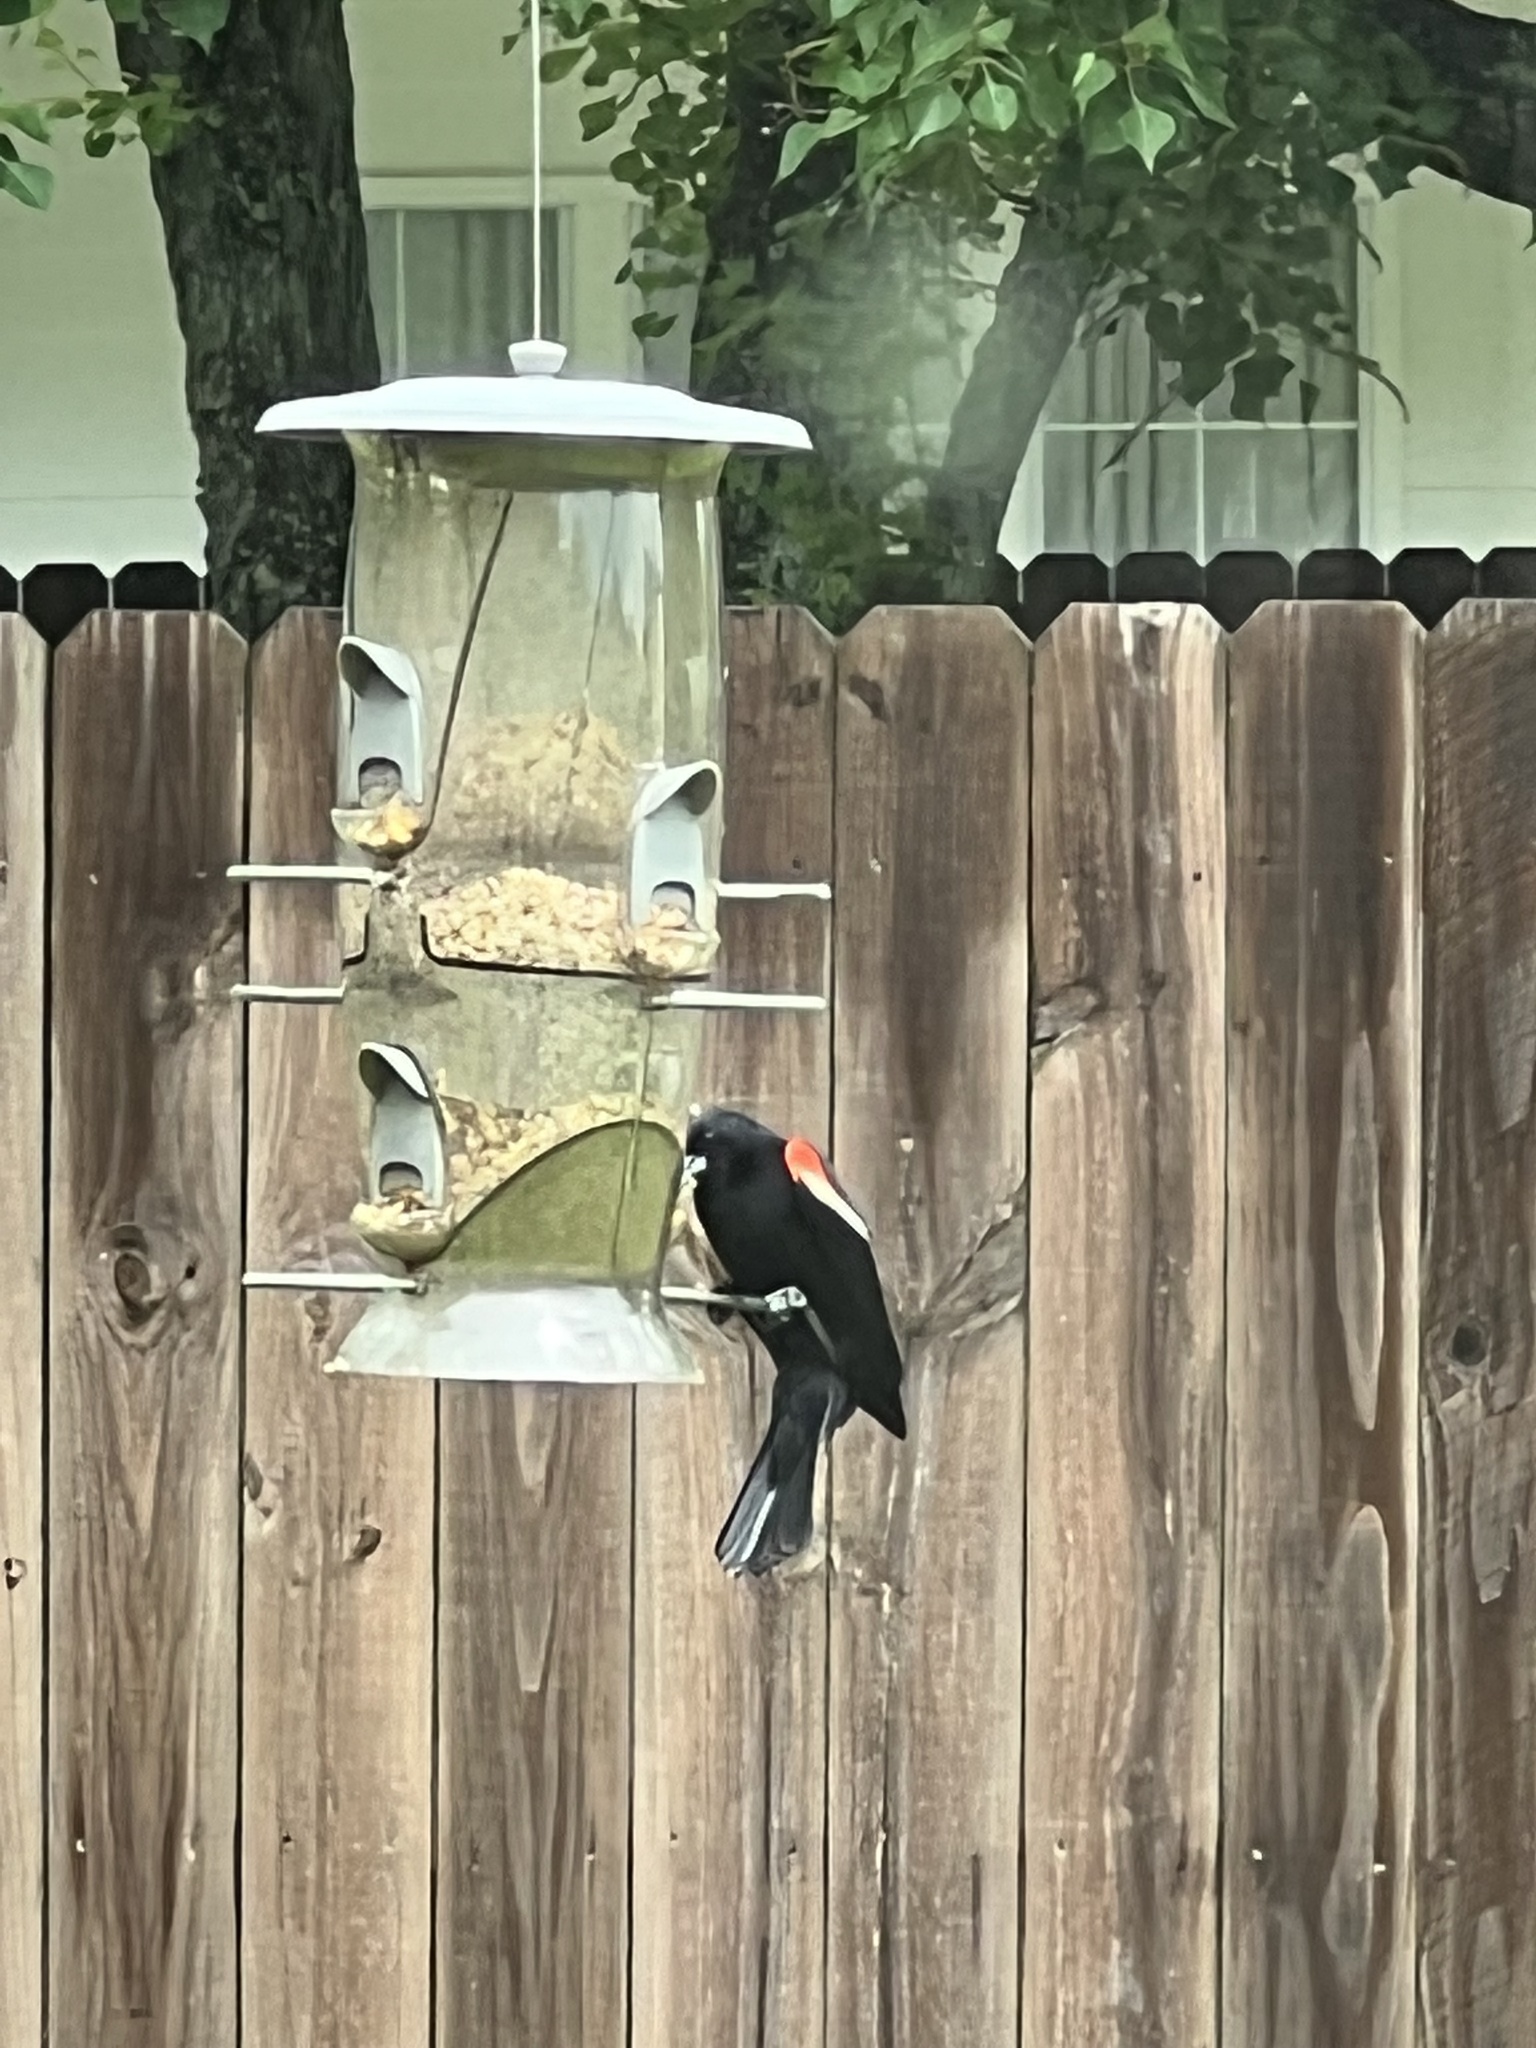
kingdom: Animalia
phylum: Chordata
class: Aves
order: Passeriformes
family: Icteridae
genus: Agelaius
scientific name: Agelaius phoeniceus
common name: Red-winged blackbird
